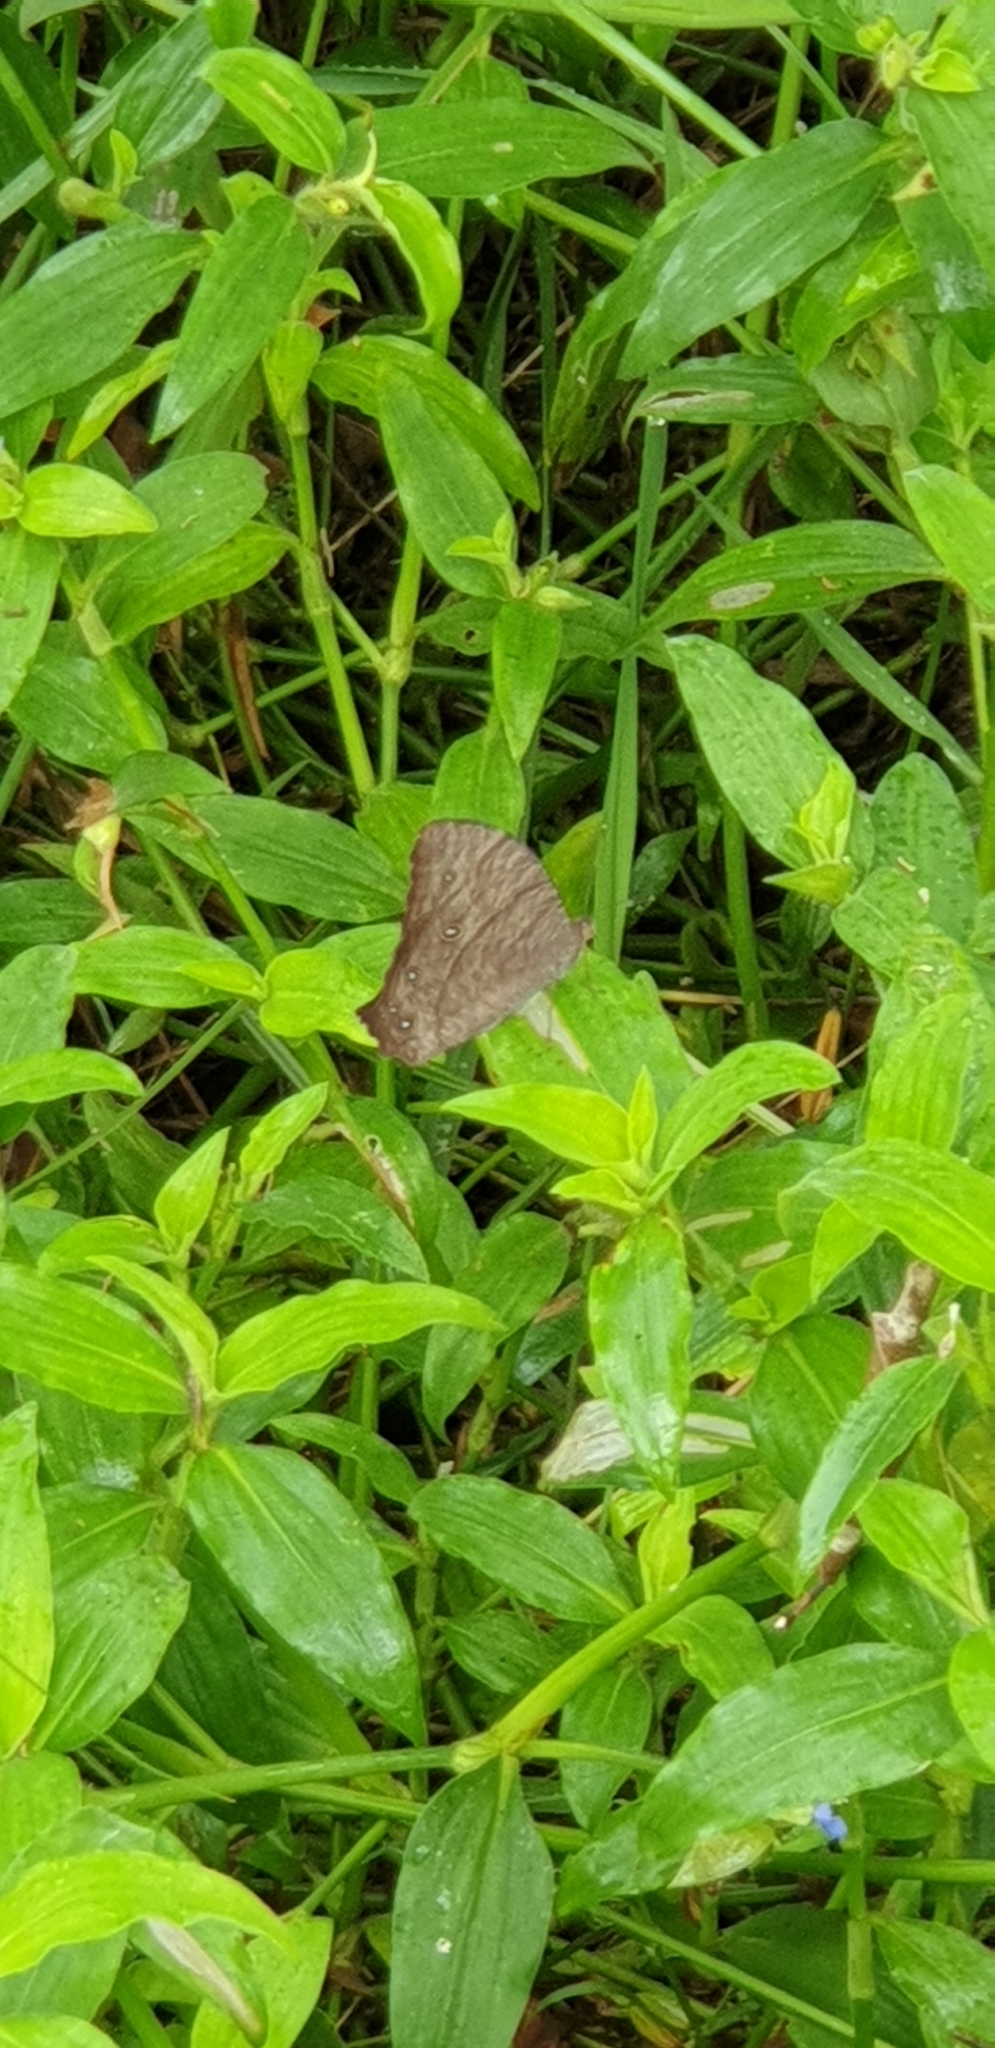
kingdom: Animalia
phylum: Arthropoda
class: Insecta
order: Lepidoptera
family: Nymphalidae
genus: Melanitis
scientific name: Melanitis leda
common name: Twilight brown
